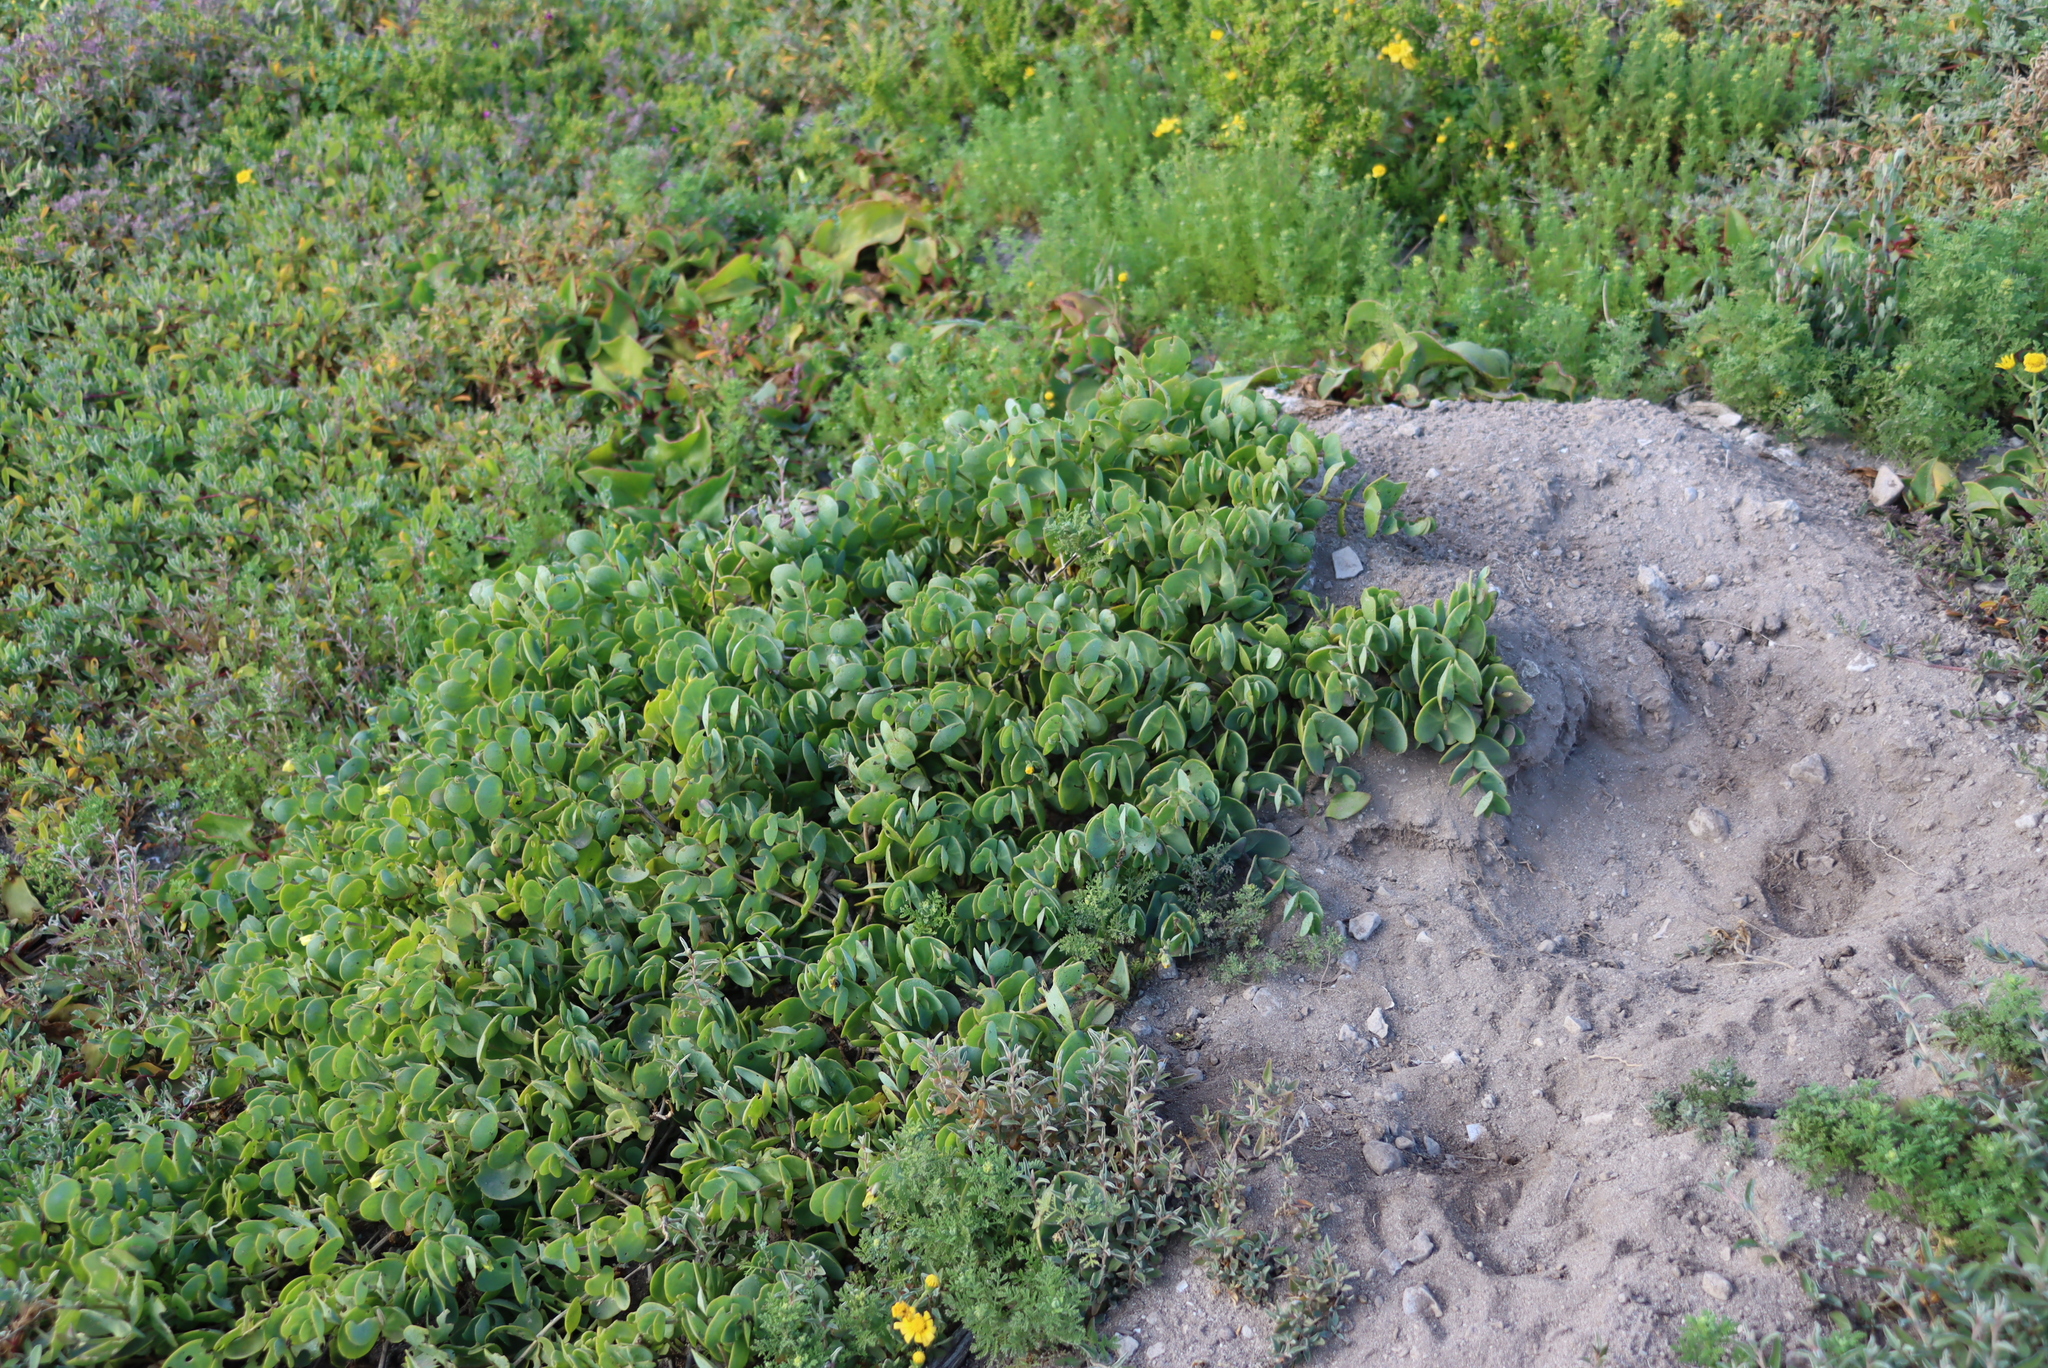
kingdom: Plantae
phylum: Tracheophyta
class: Magnoliopsida
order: Zygophyllales
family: Zygophyllaceae
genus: Roepera
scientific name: Roepera cordifolia
